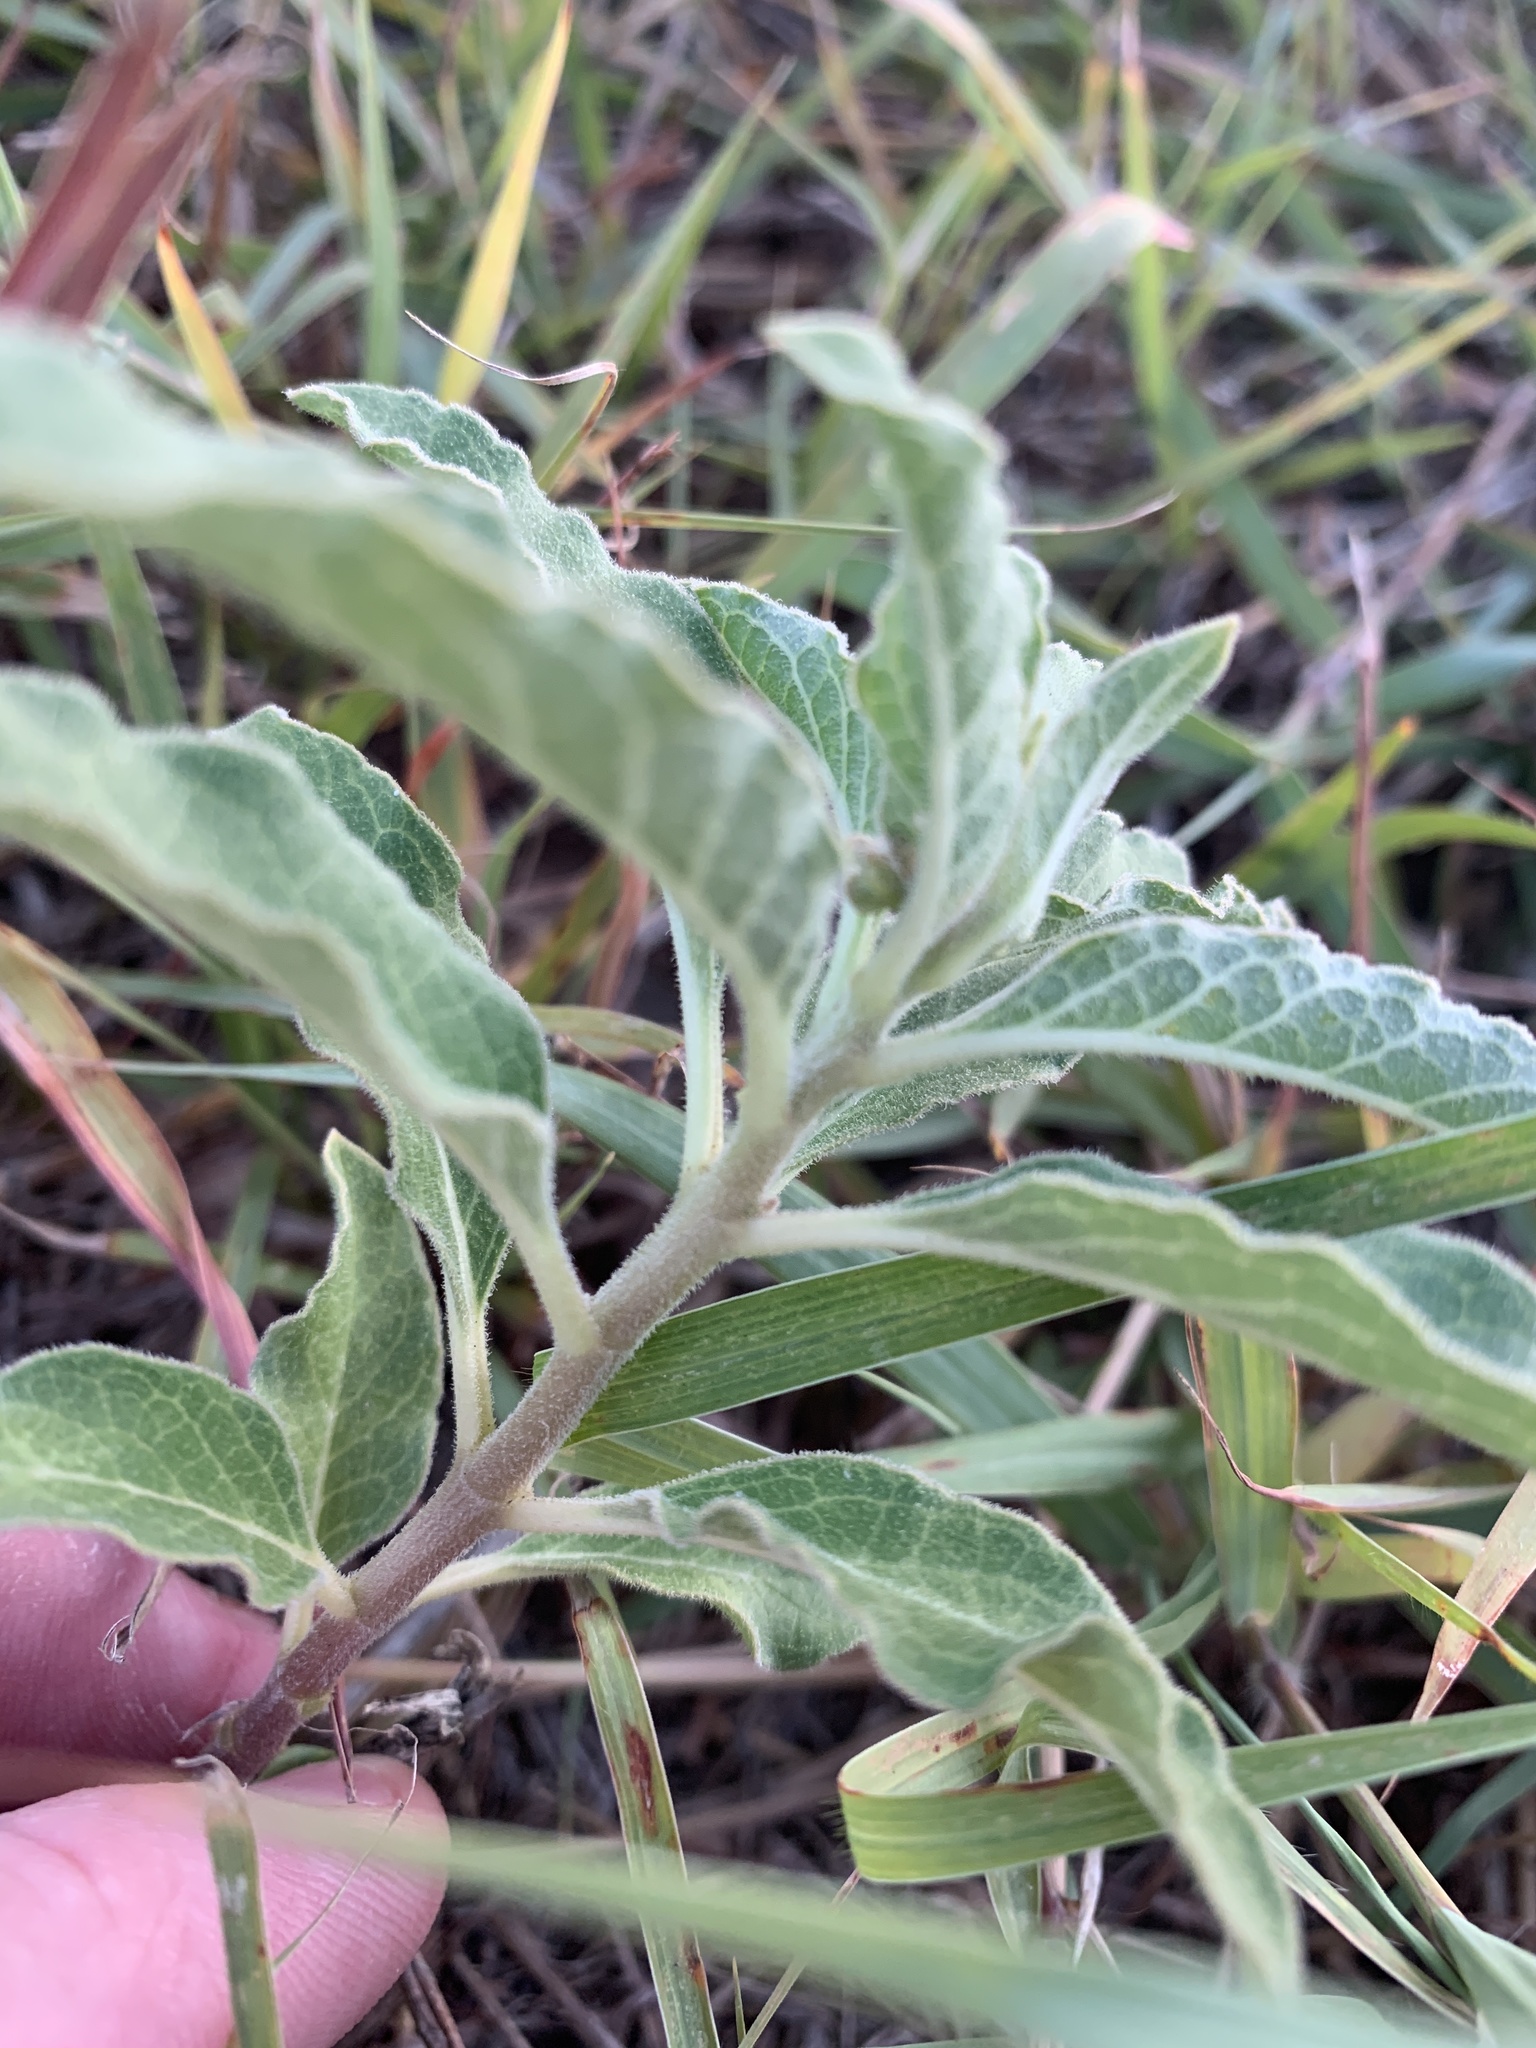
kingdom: Plantae
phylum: Tracheophyta
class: Magnoliopsida
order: Gentianales
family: Apocynaceae
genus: Asclepias
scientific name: Asclepias oenotheroides
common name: Zizotes milkweed
